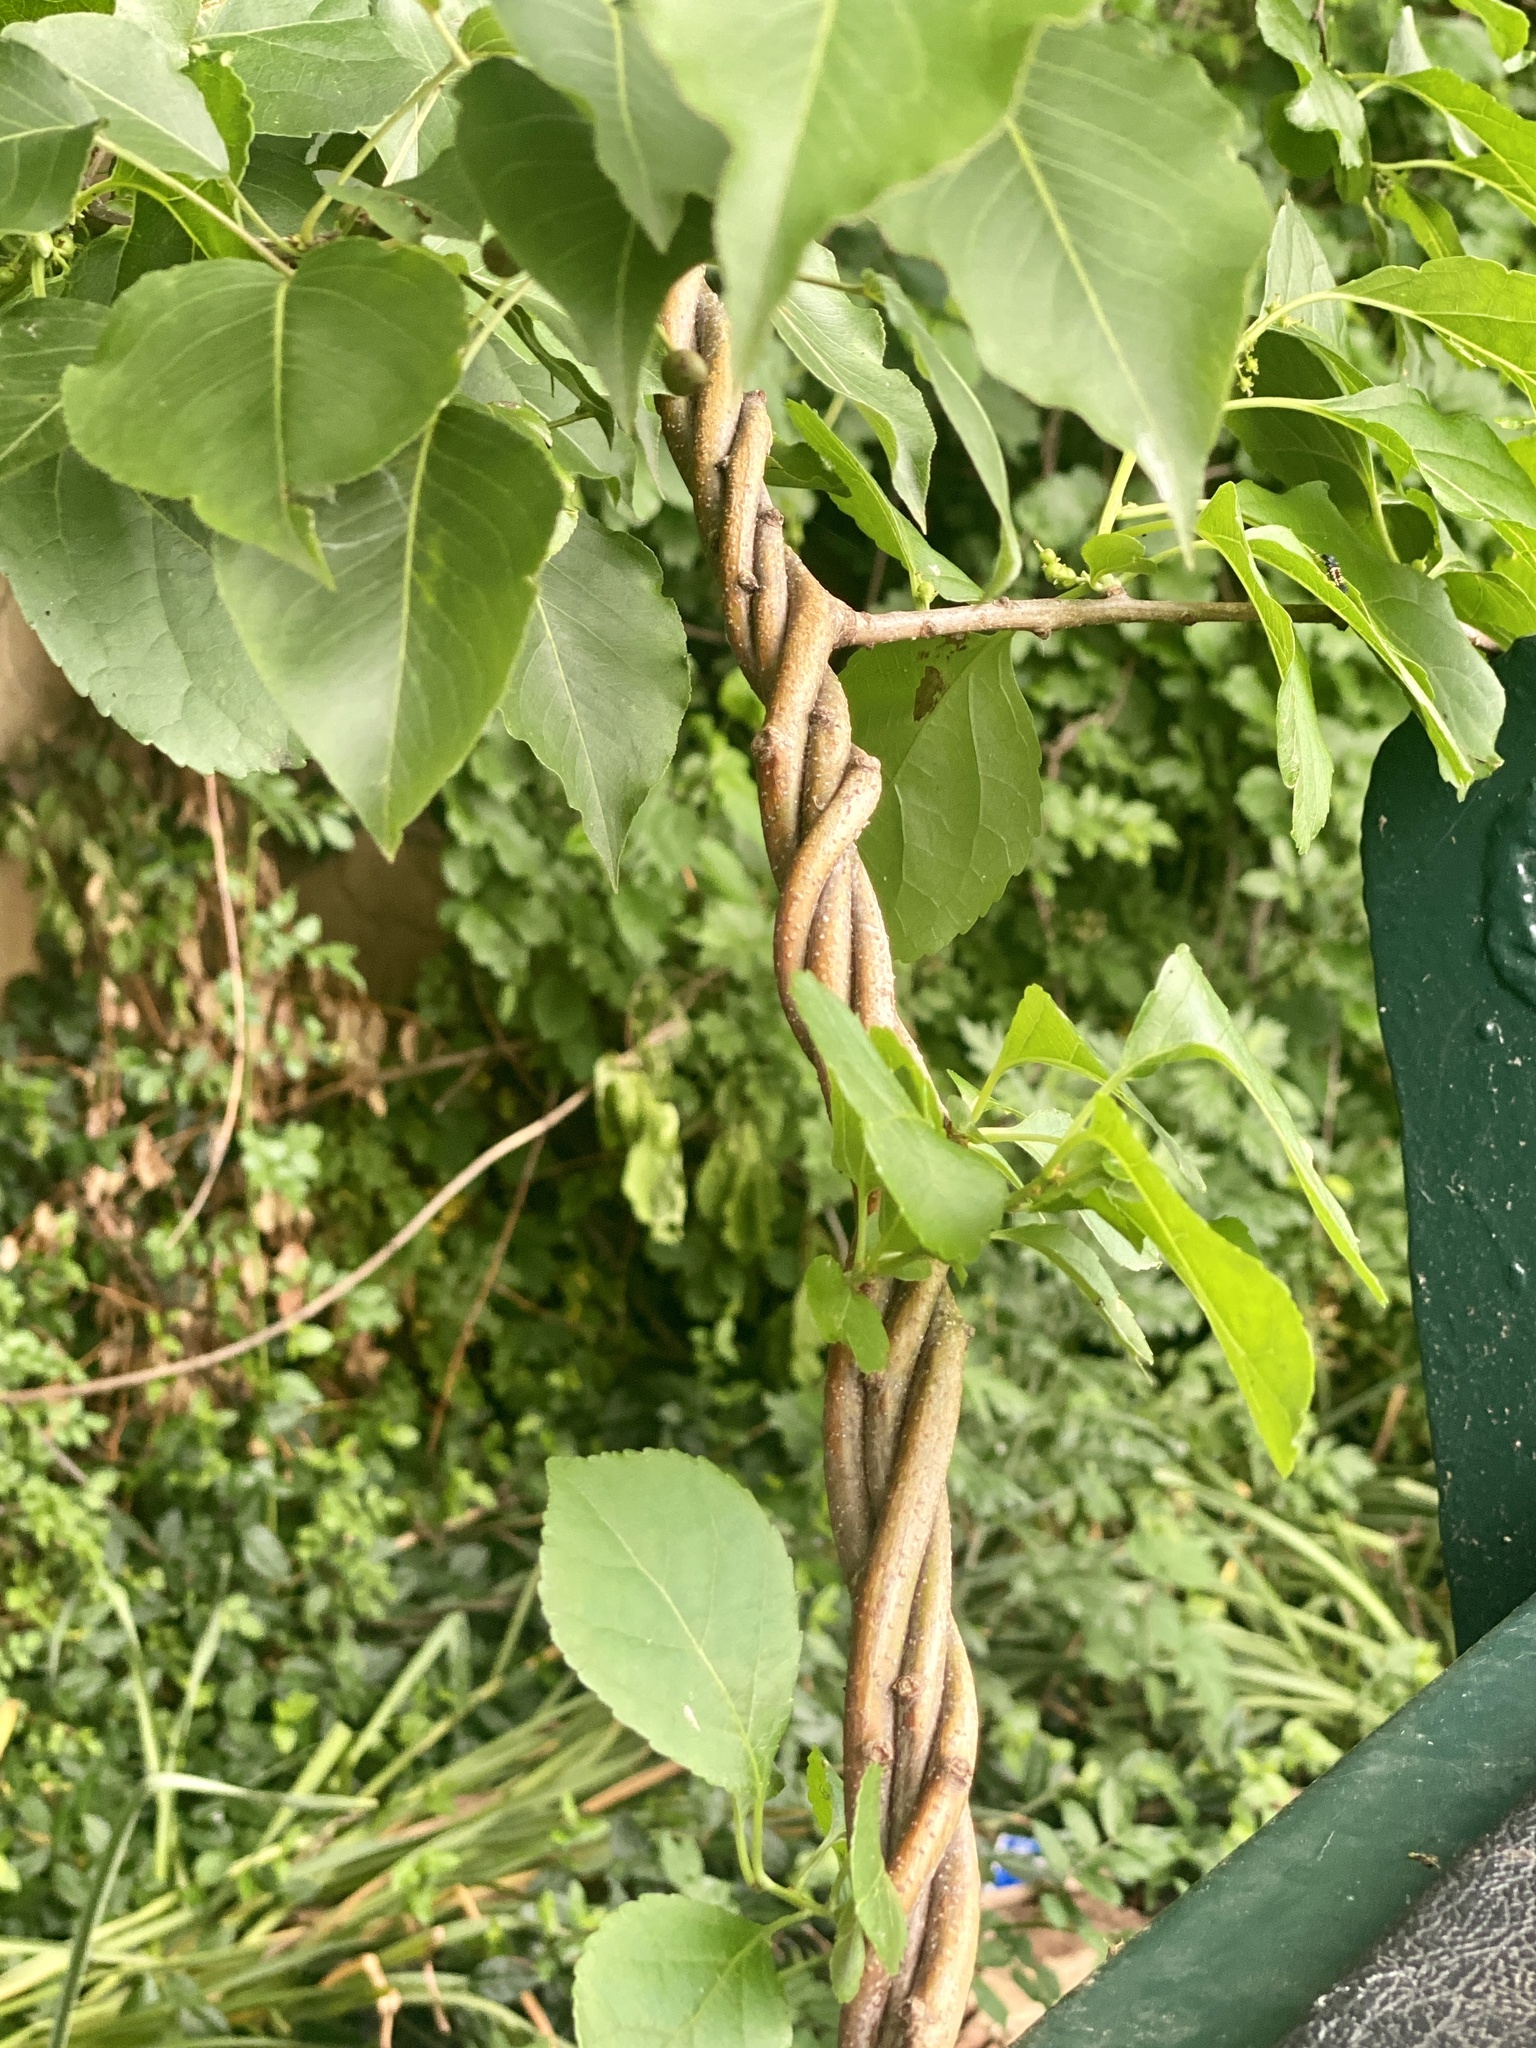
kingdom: Plantae
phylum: Tracheophyta
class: Magnoliopsida
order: Celastrales
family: Celastraceae
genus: Celastrus
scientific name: Celastrus orbiculatus
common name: Oriental bittersweet
